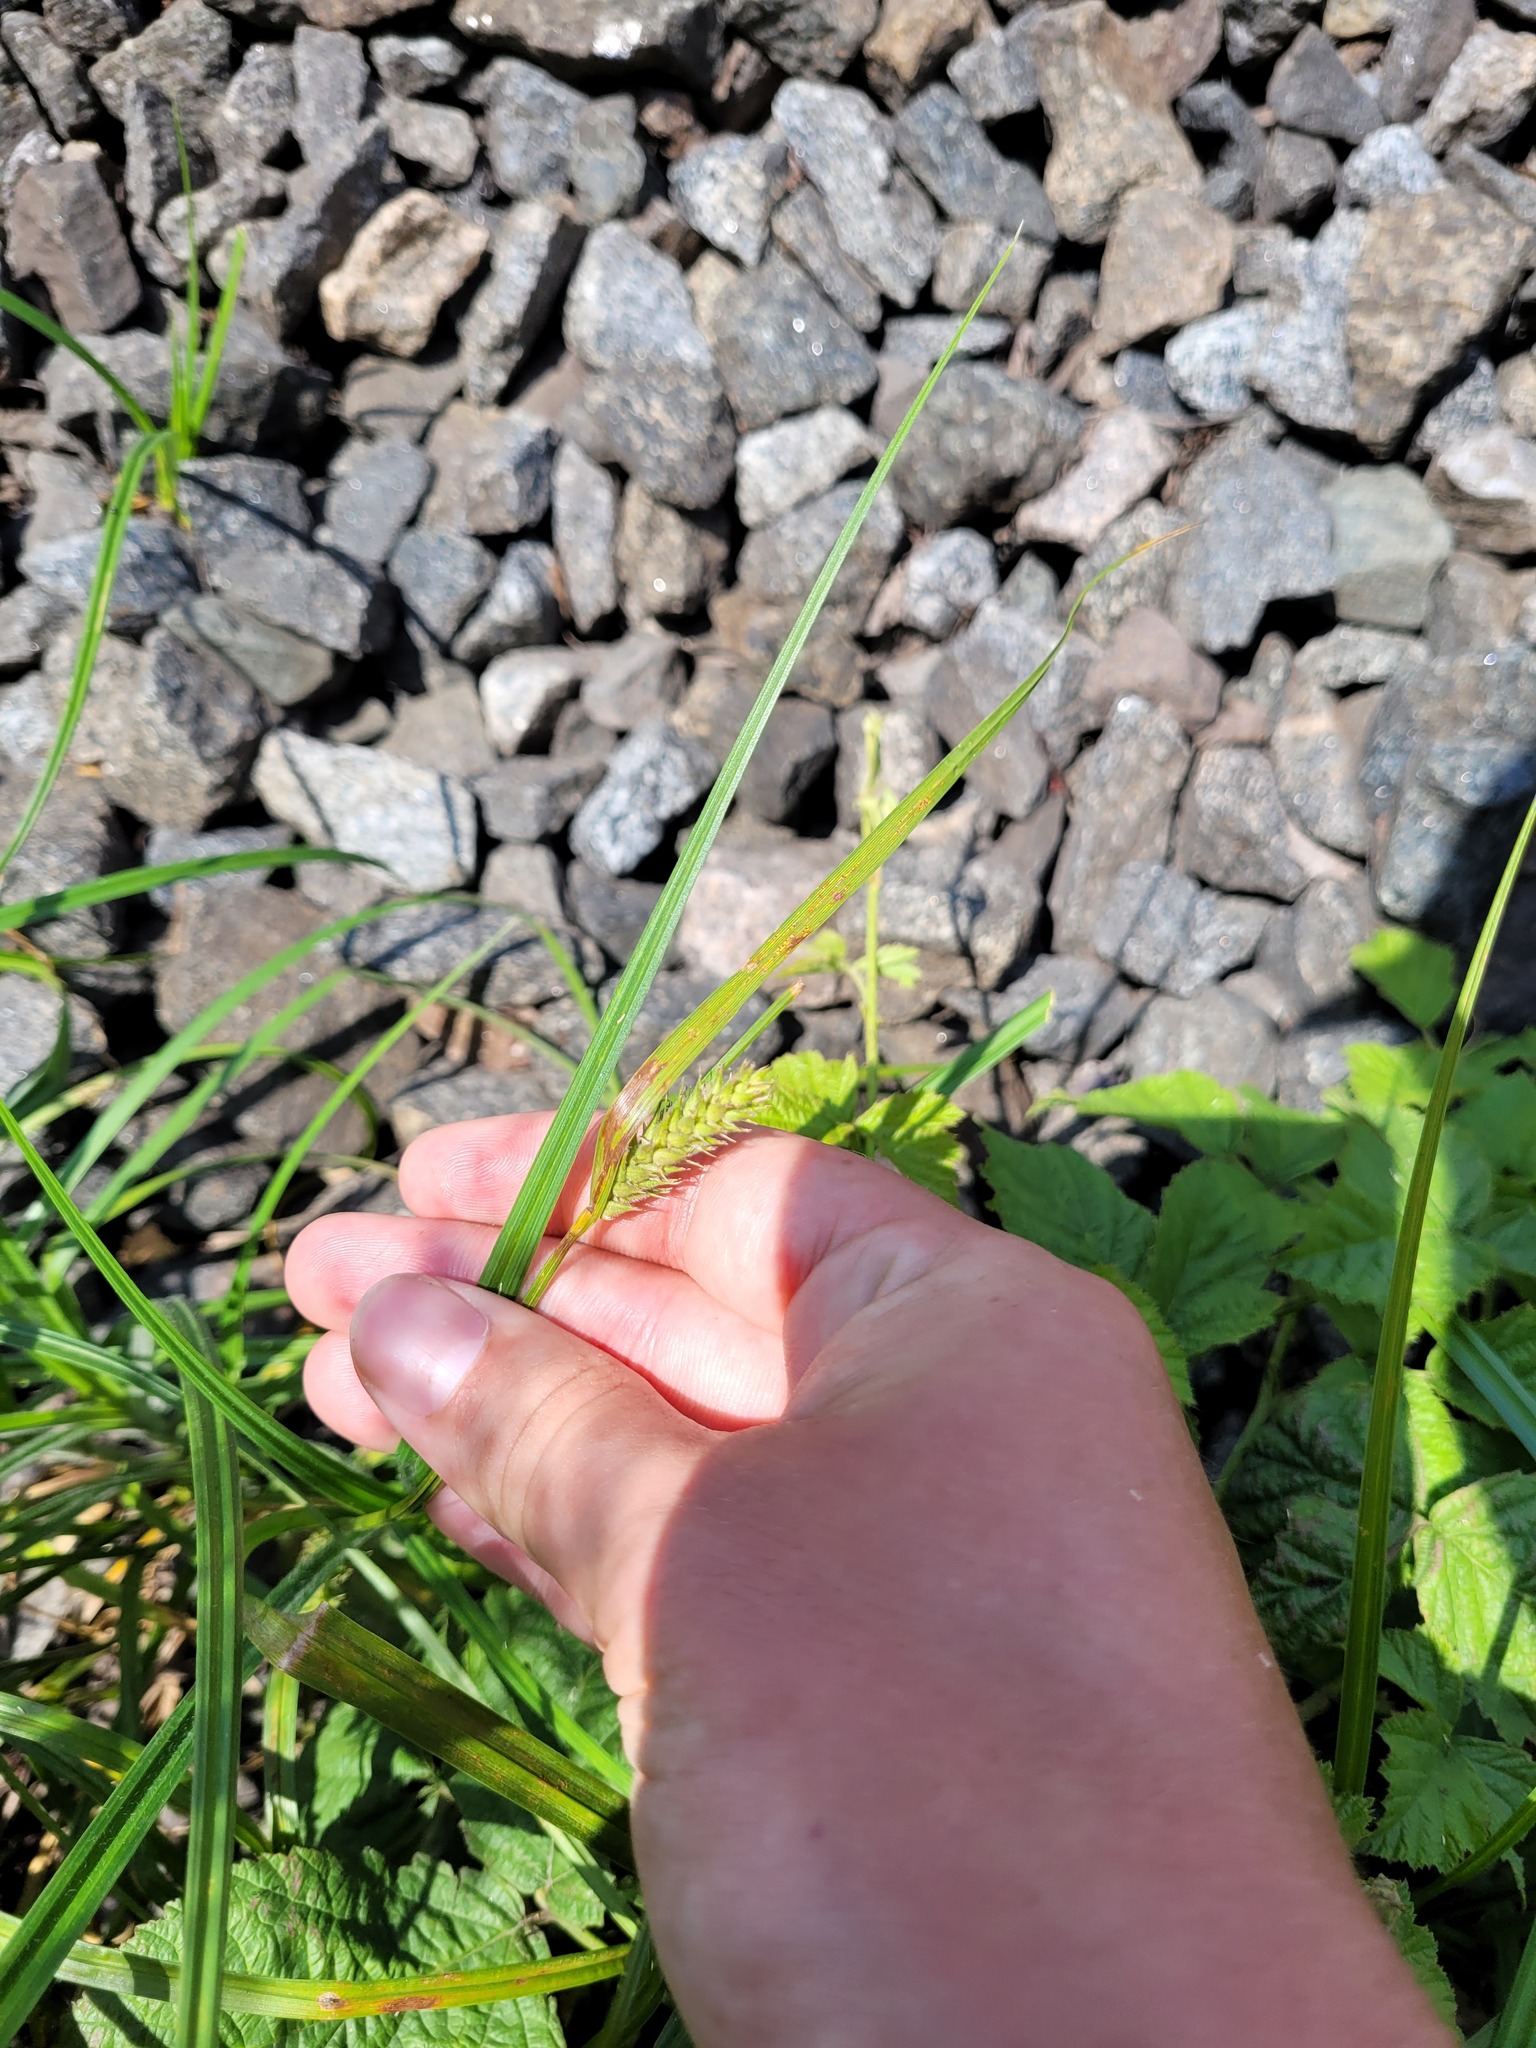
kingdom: Plantae
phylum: Tracheophyta
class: Liliopsida
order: Poales
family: Cyperaceae
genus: Carex
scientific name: Carex hirta
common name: Hairy sedge
